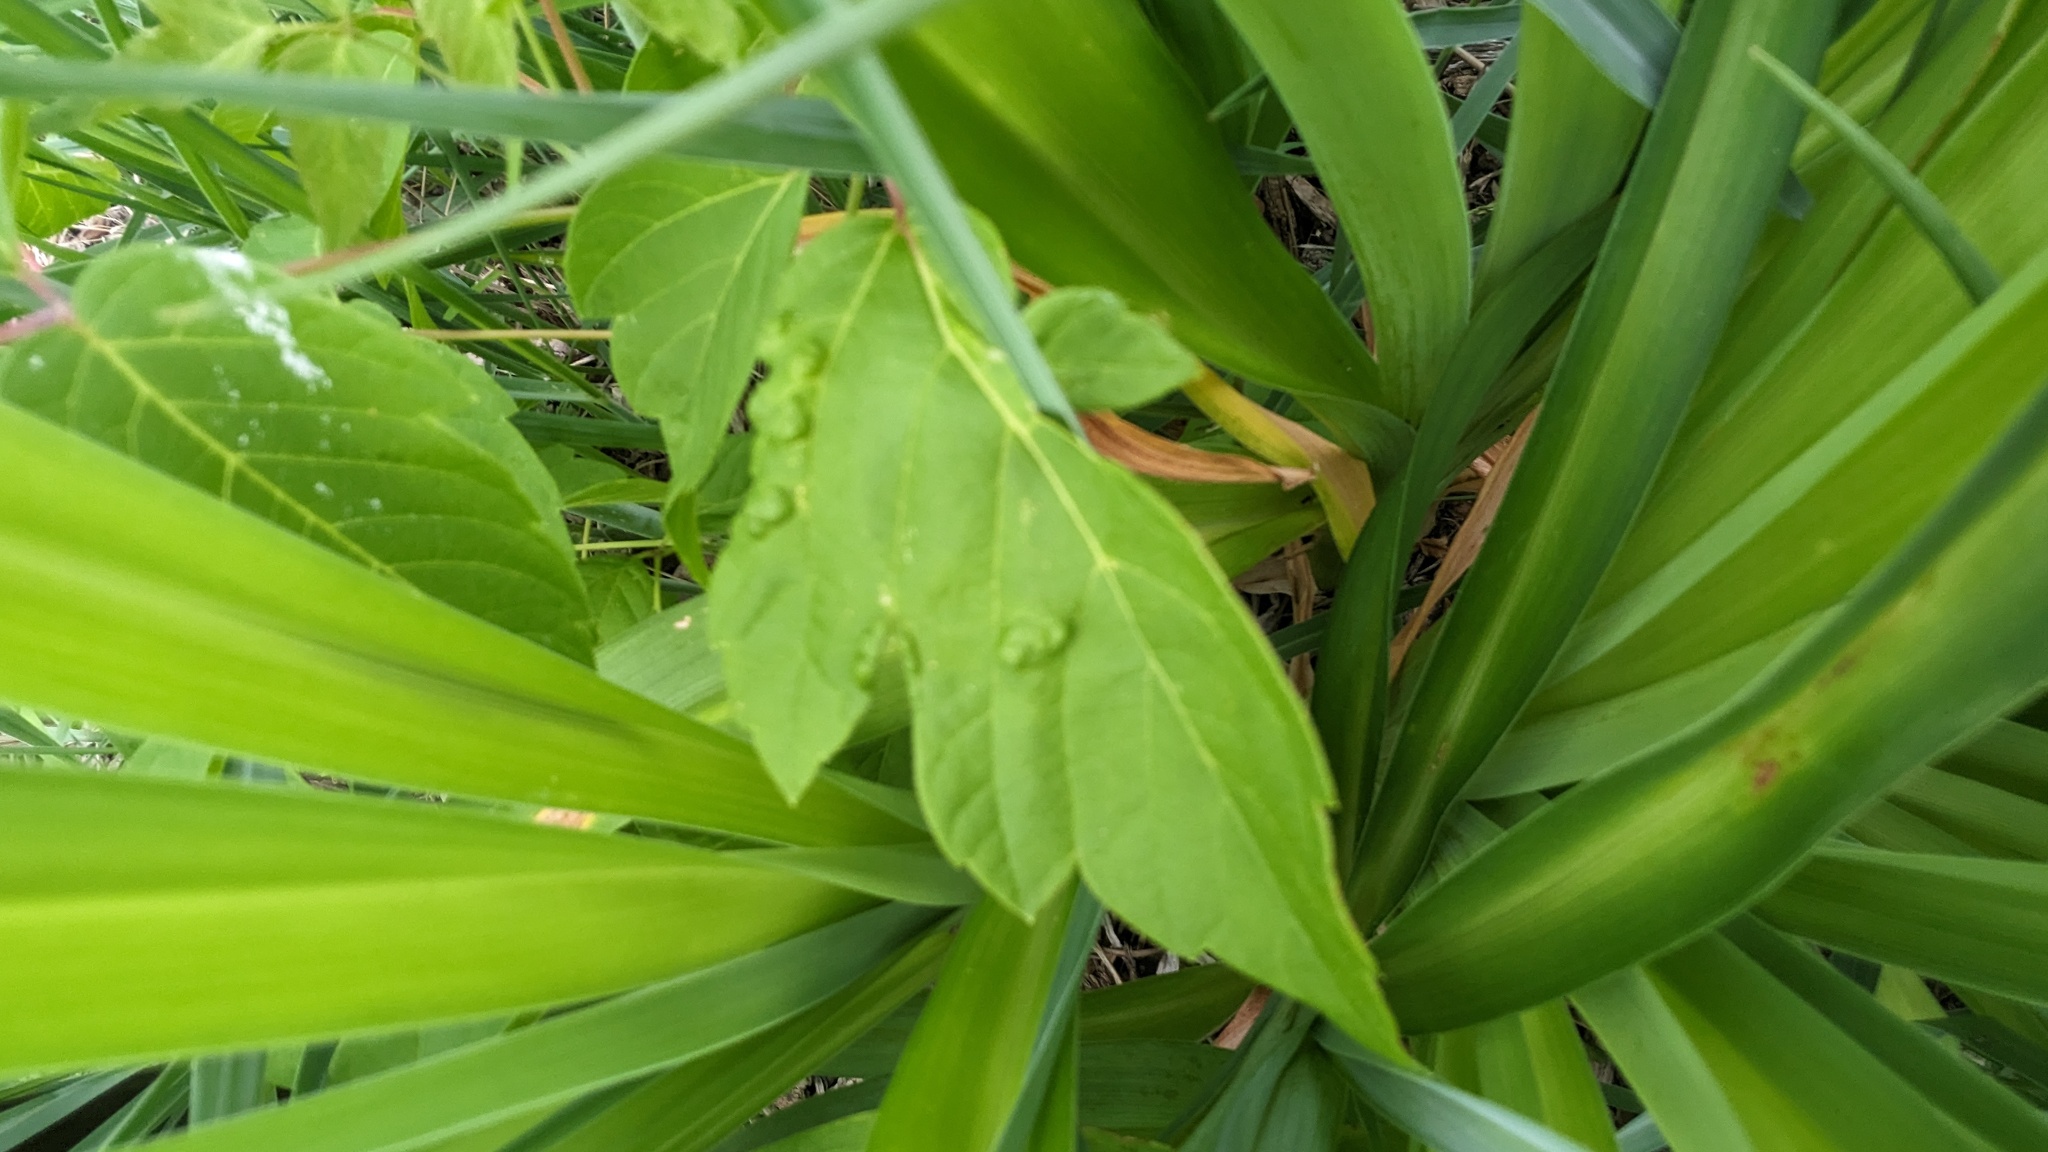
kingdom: Animalia
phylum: Arthropoda
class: Arachnida
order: Trombidiformes
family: Eriophyidae
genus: Aceria
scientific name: Aceria
